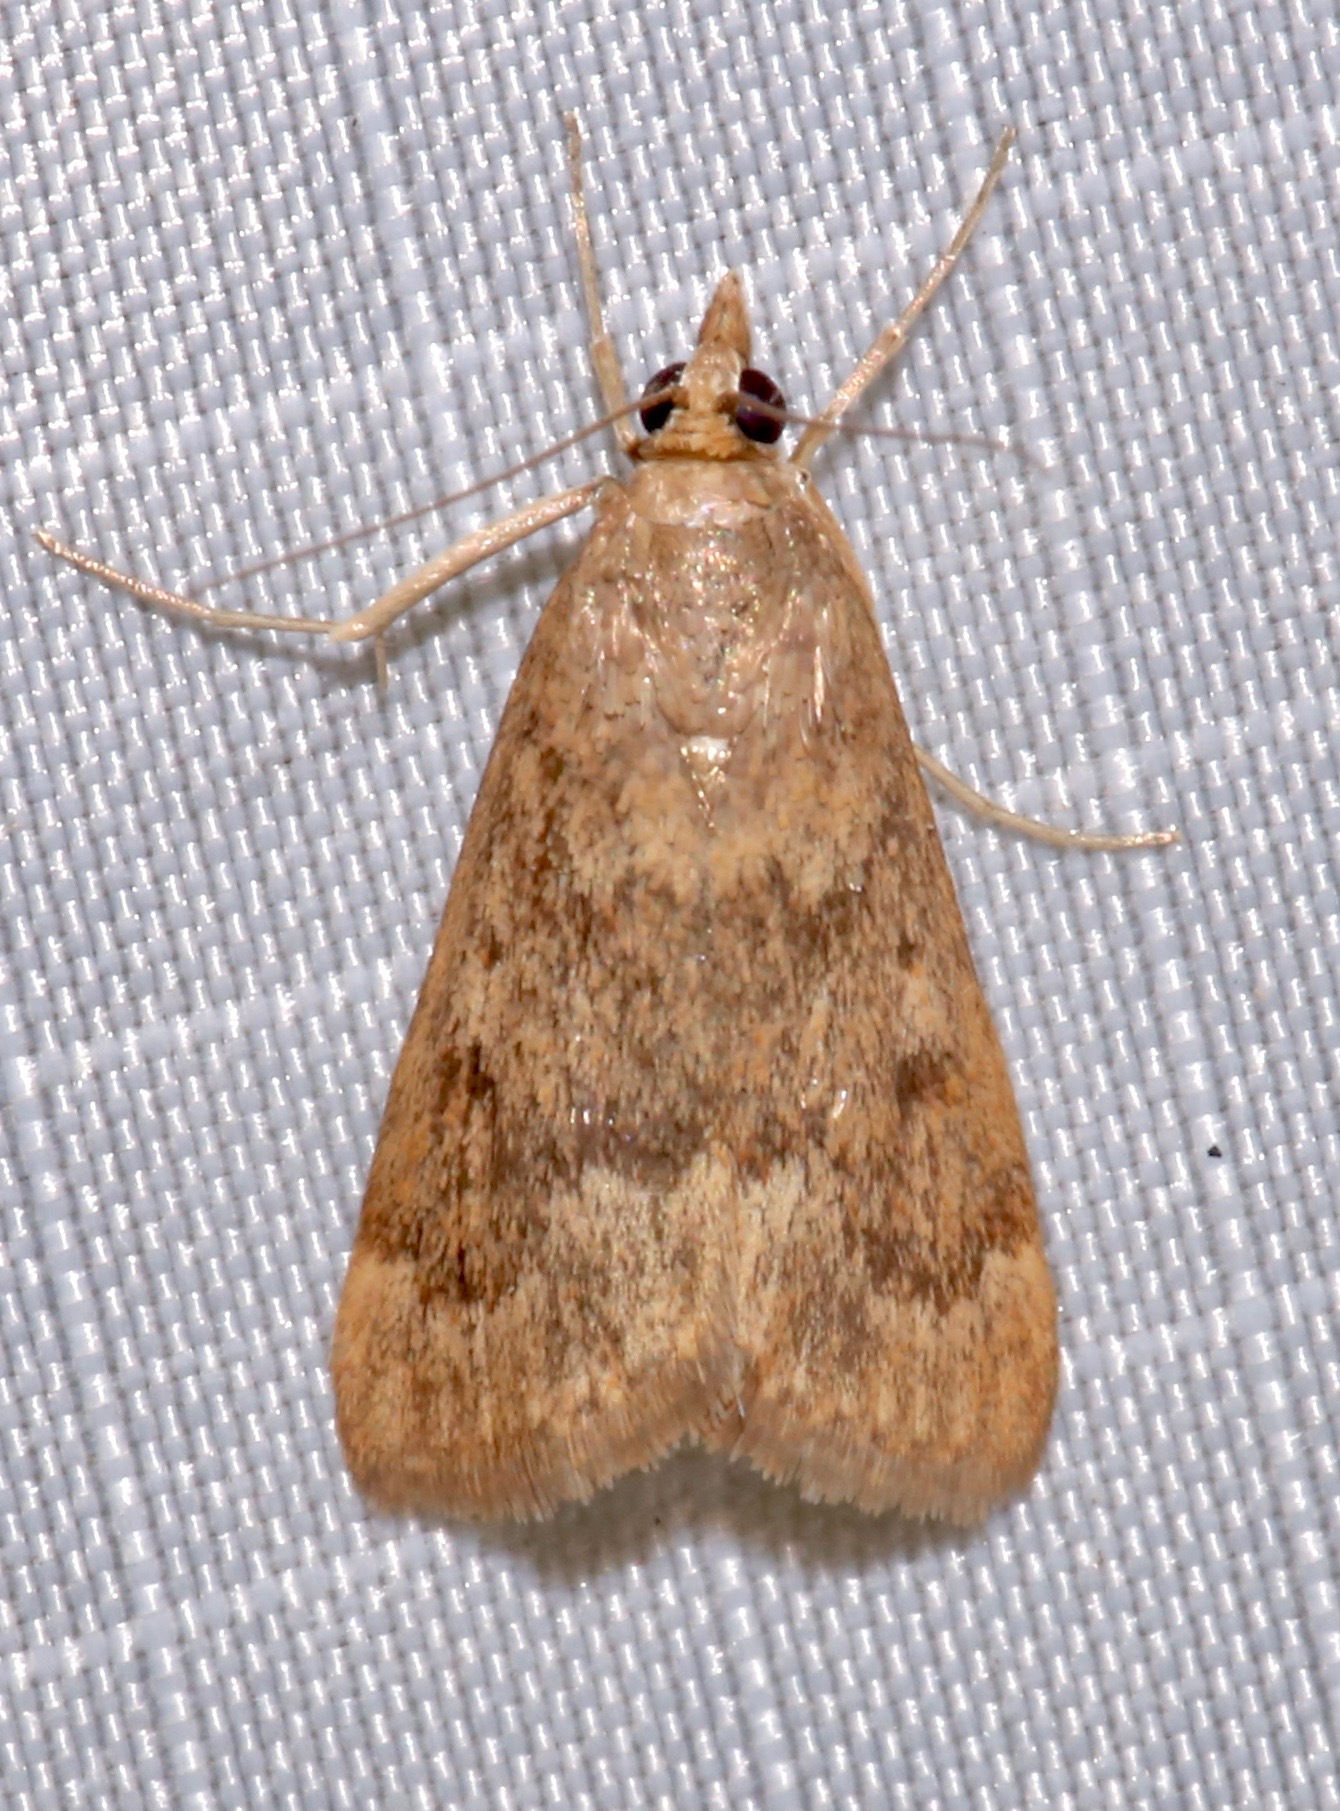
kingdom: Animalia
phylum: Arthropoda
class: Insecta
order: Lepidoptera
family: Crambidae
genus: Achyra
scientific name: Achyra rantalis
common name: Garden webworm
